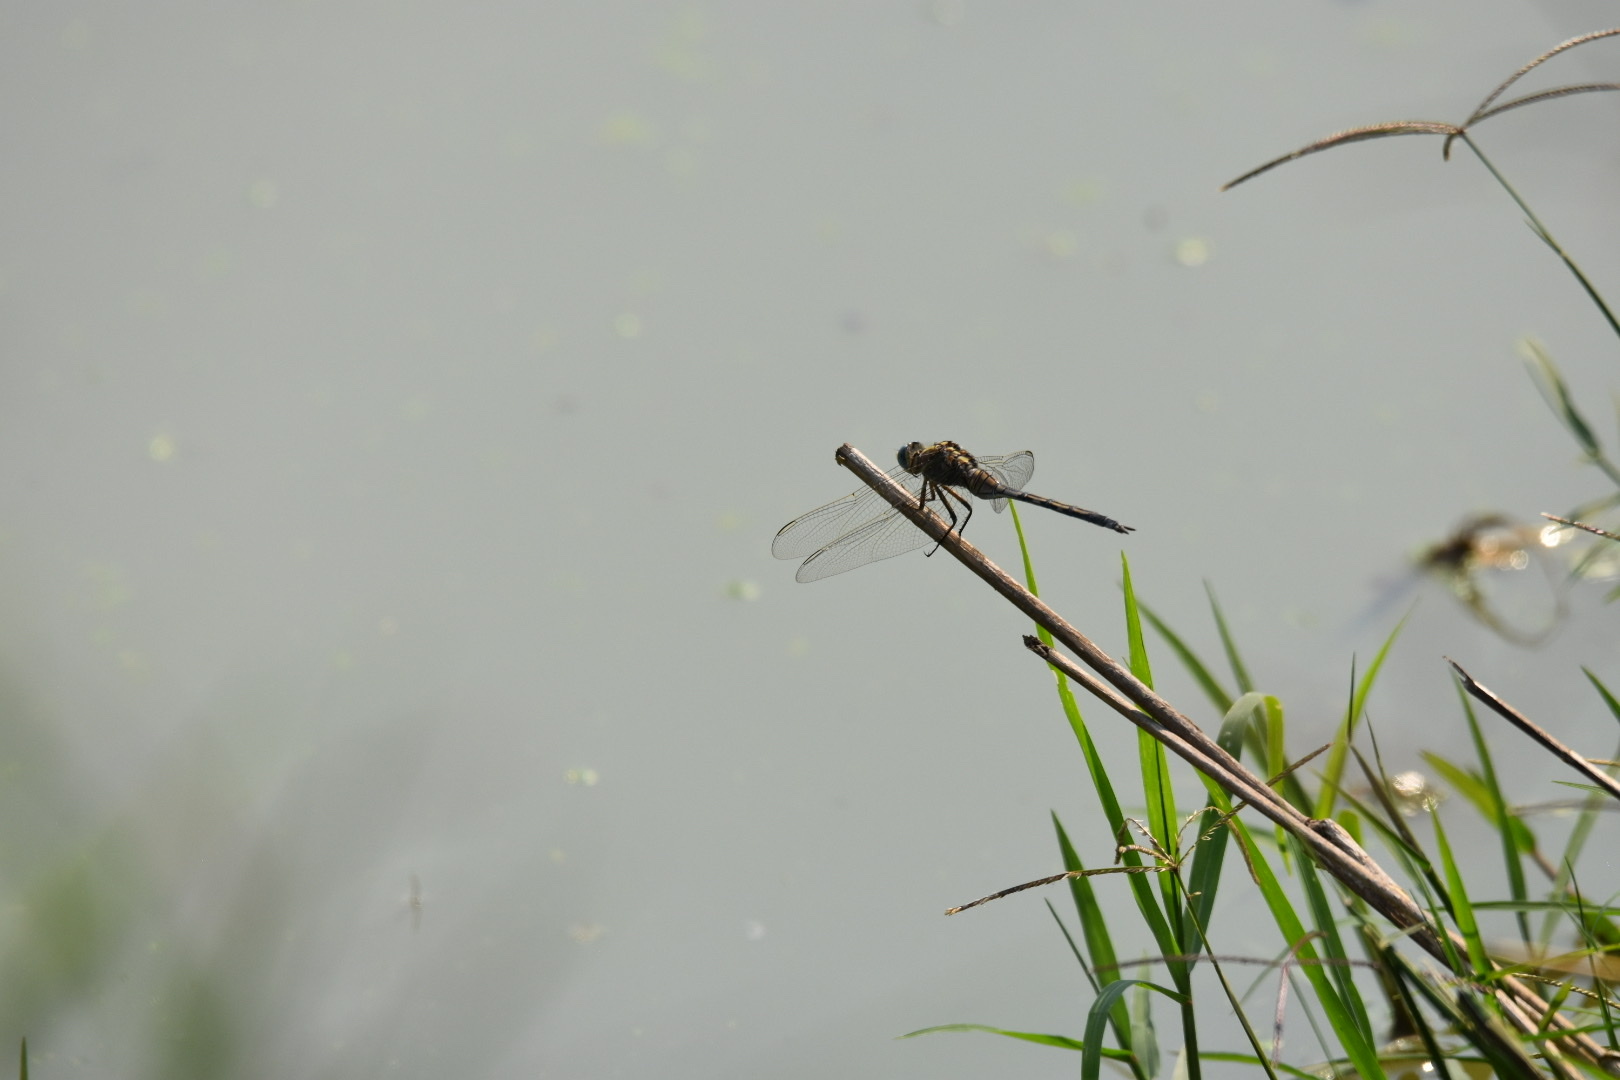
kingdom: Animalia
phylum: Arthropoda
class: Insecta
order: Odonata
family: Libellulidae
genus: Orthetrum
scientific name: Orthetrum trinacria
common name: Long skimmer
